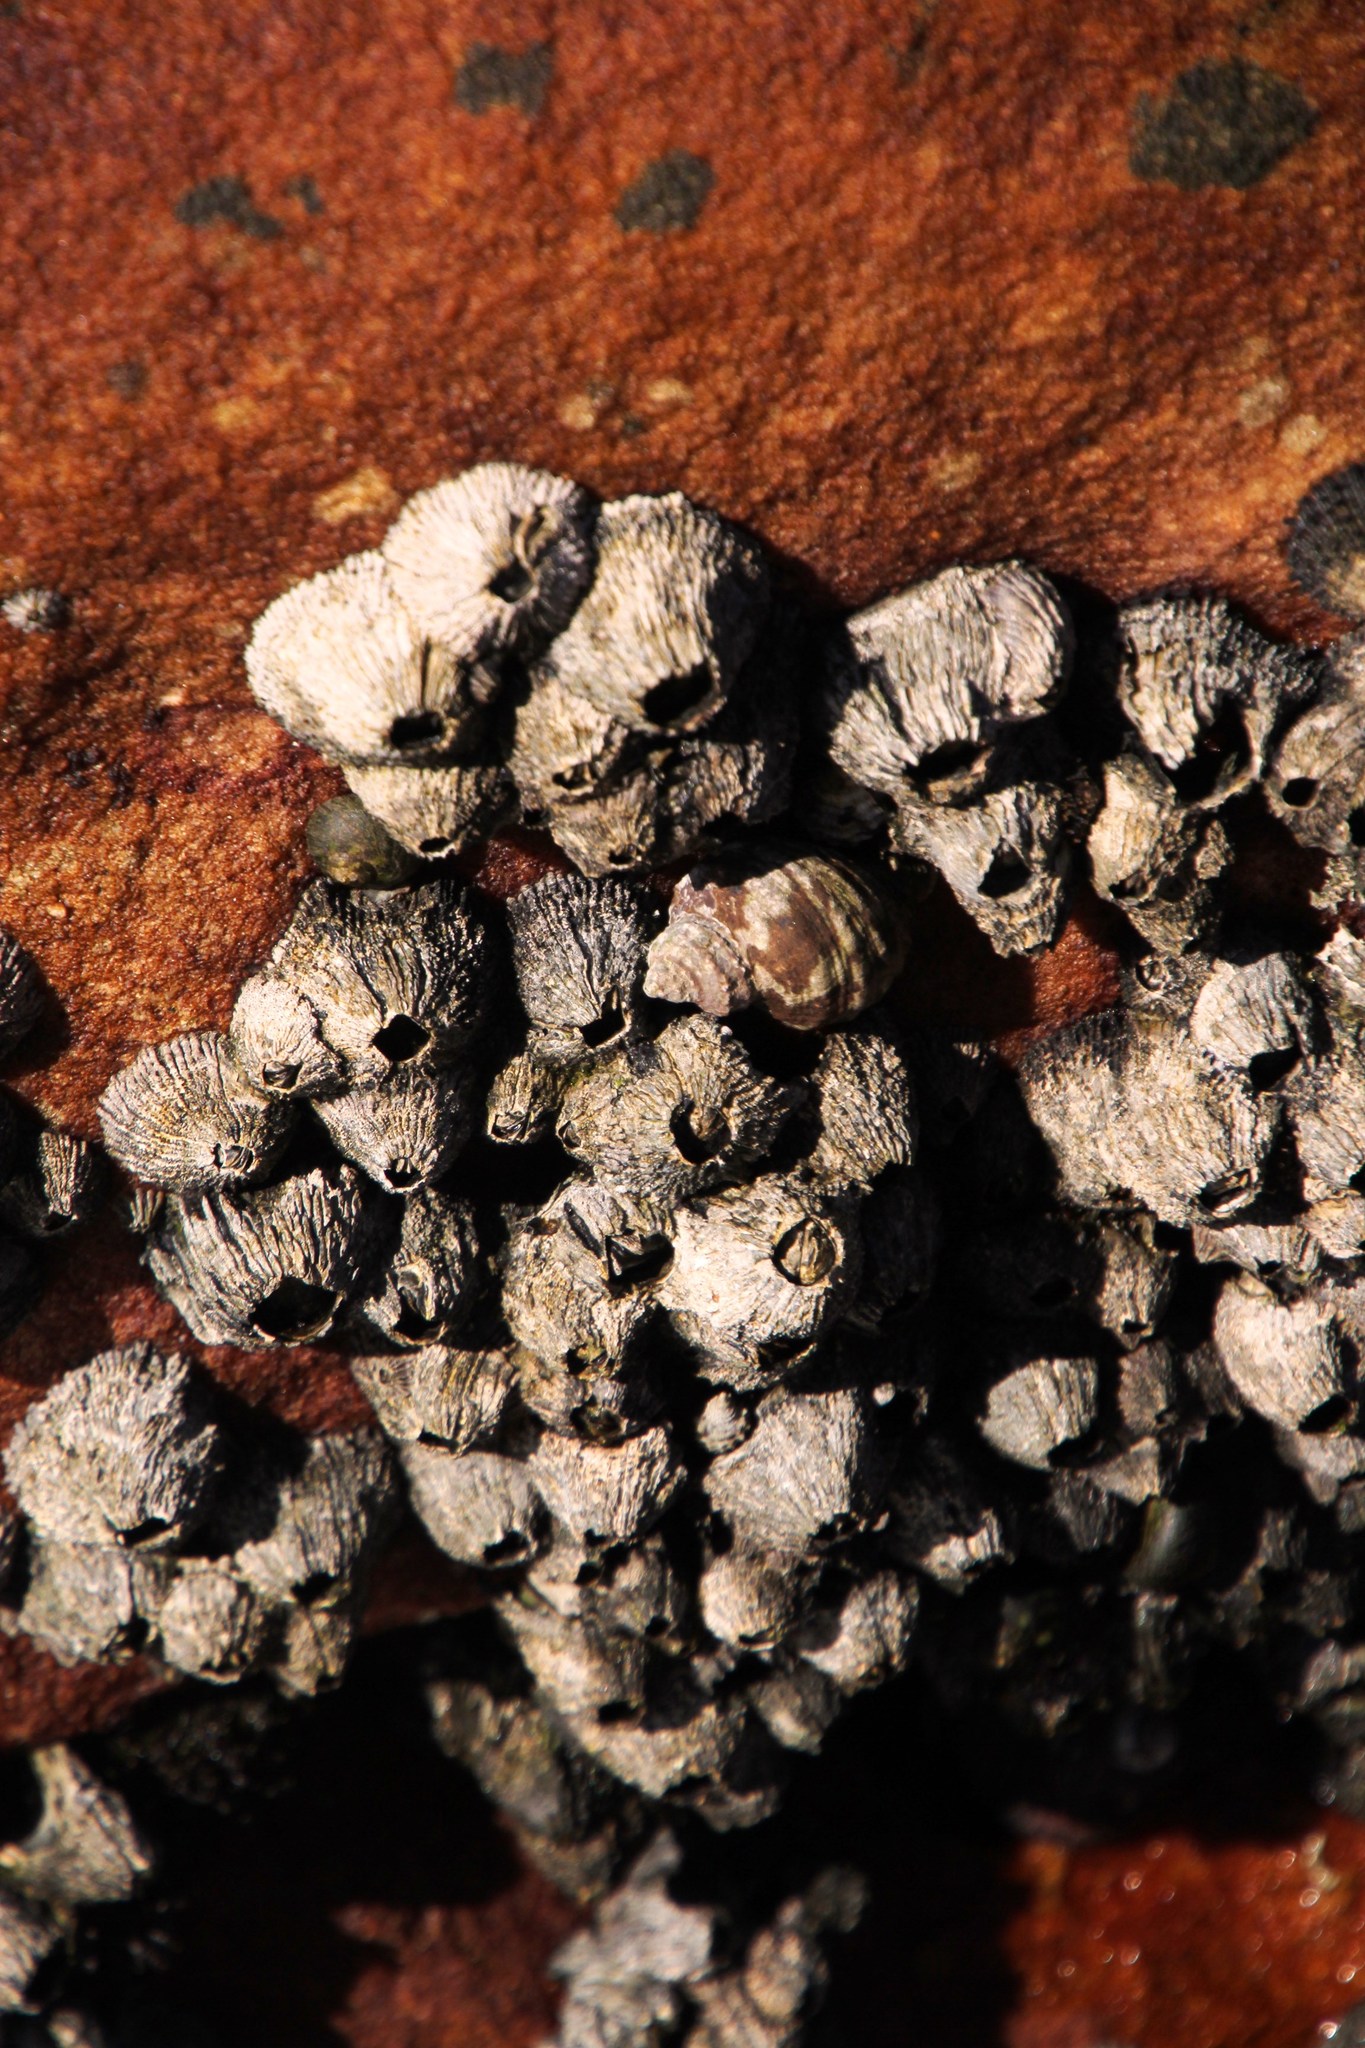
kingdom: Animalia
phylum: Arthropoda
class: Maxillopoda
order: Sessilia
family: Tetraclitidae
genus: Tetraclita
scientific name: Tetraclita serrata
